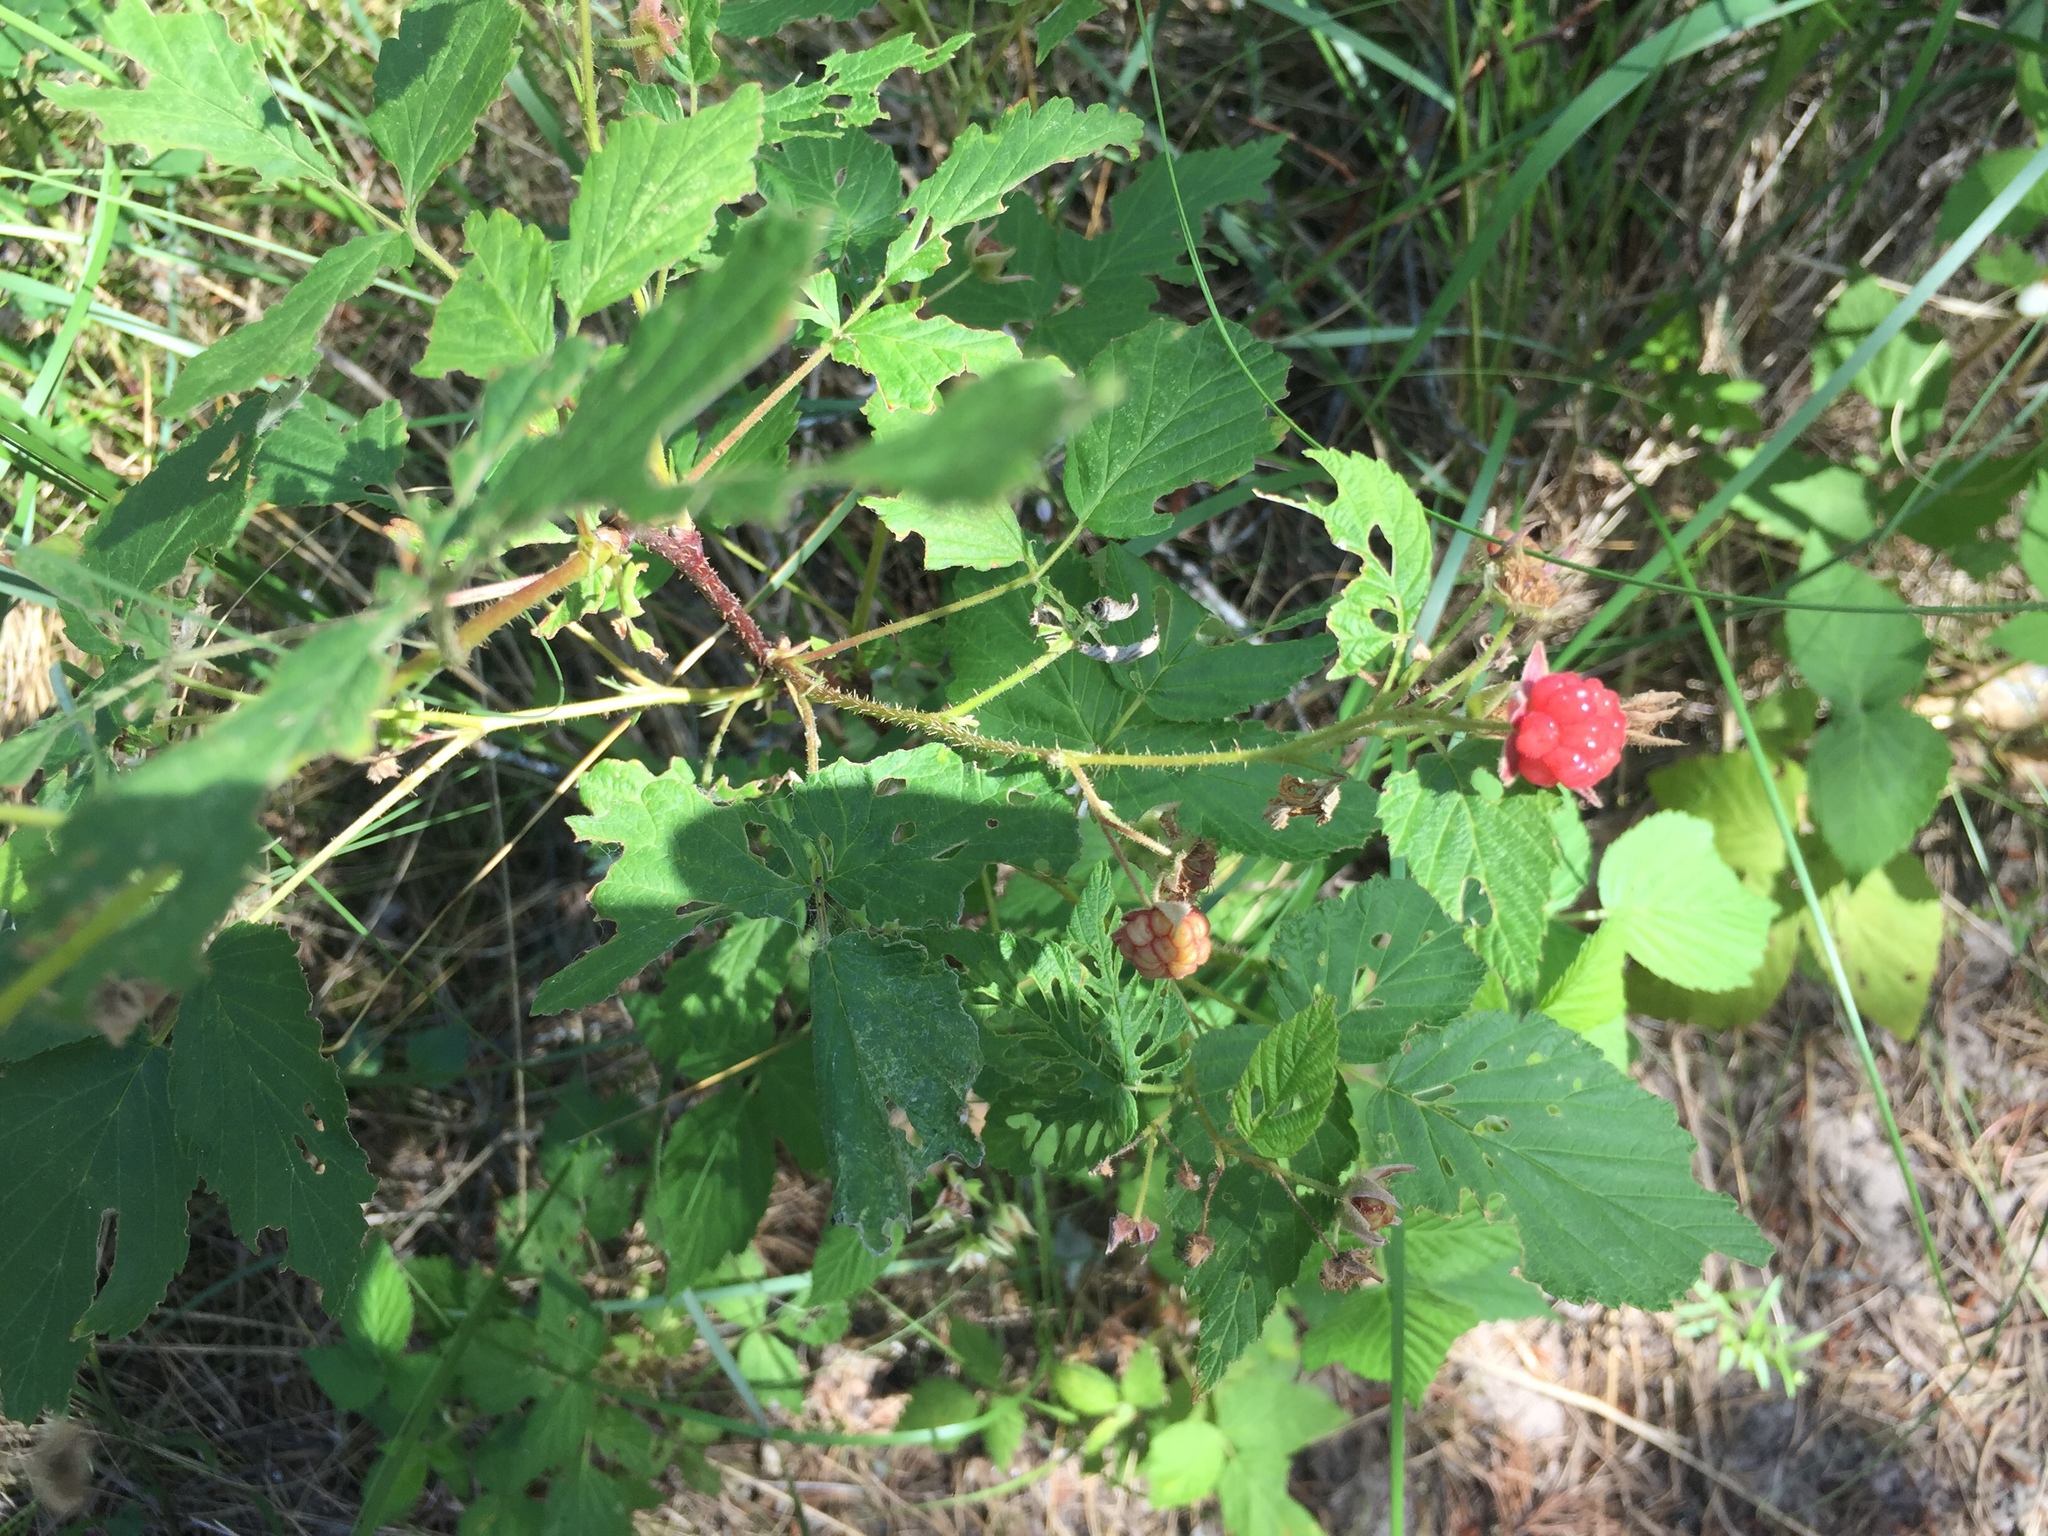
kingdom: Plantae
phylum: Tracheophyta
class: Magnoliopsida
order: Rosales
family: Rosaceae
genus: Rubus
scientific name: Rubus idaeus
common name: Raspberry
